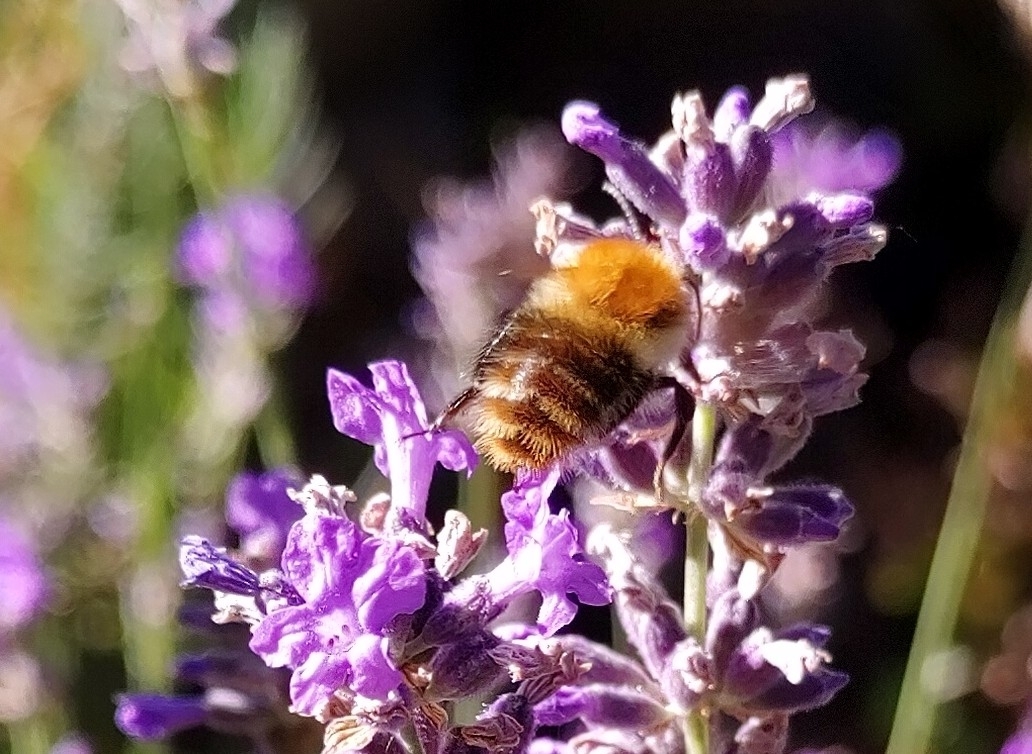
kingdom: Animalia
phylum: Arthropoda
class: Insecta
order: Hymenoptera
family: Apidae
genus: Bombus
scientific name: Bombus pascuorum
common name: Common carder bee
